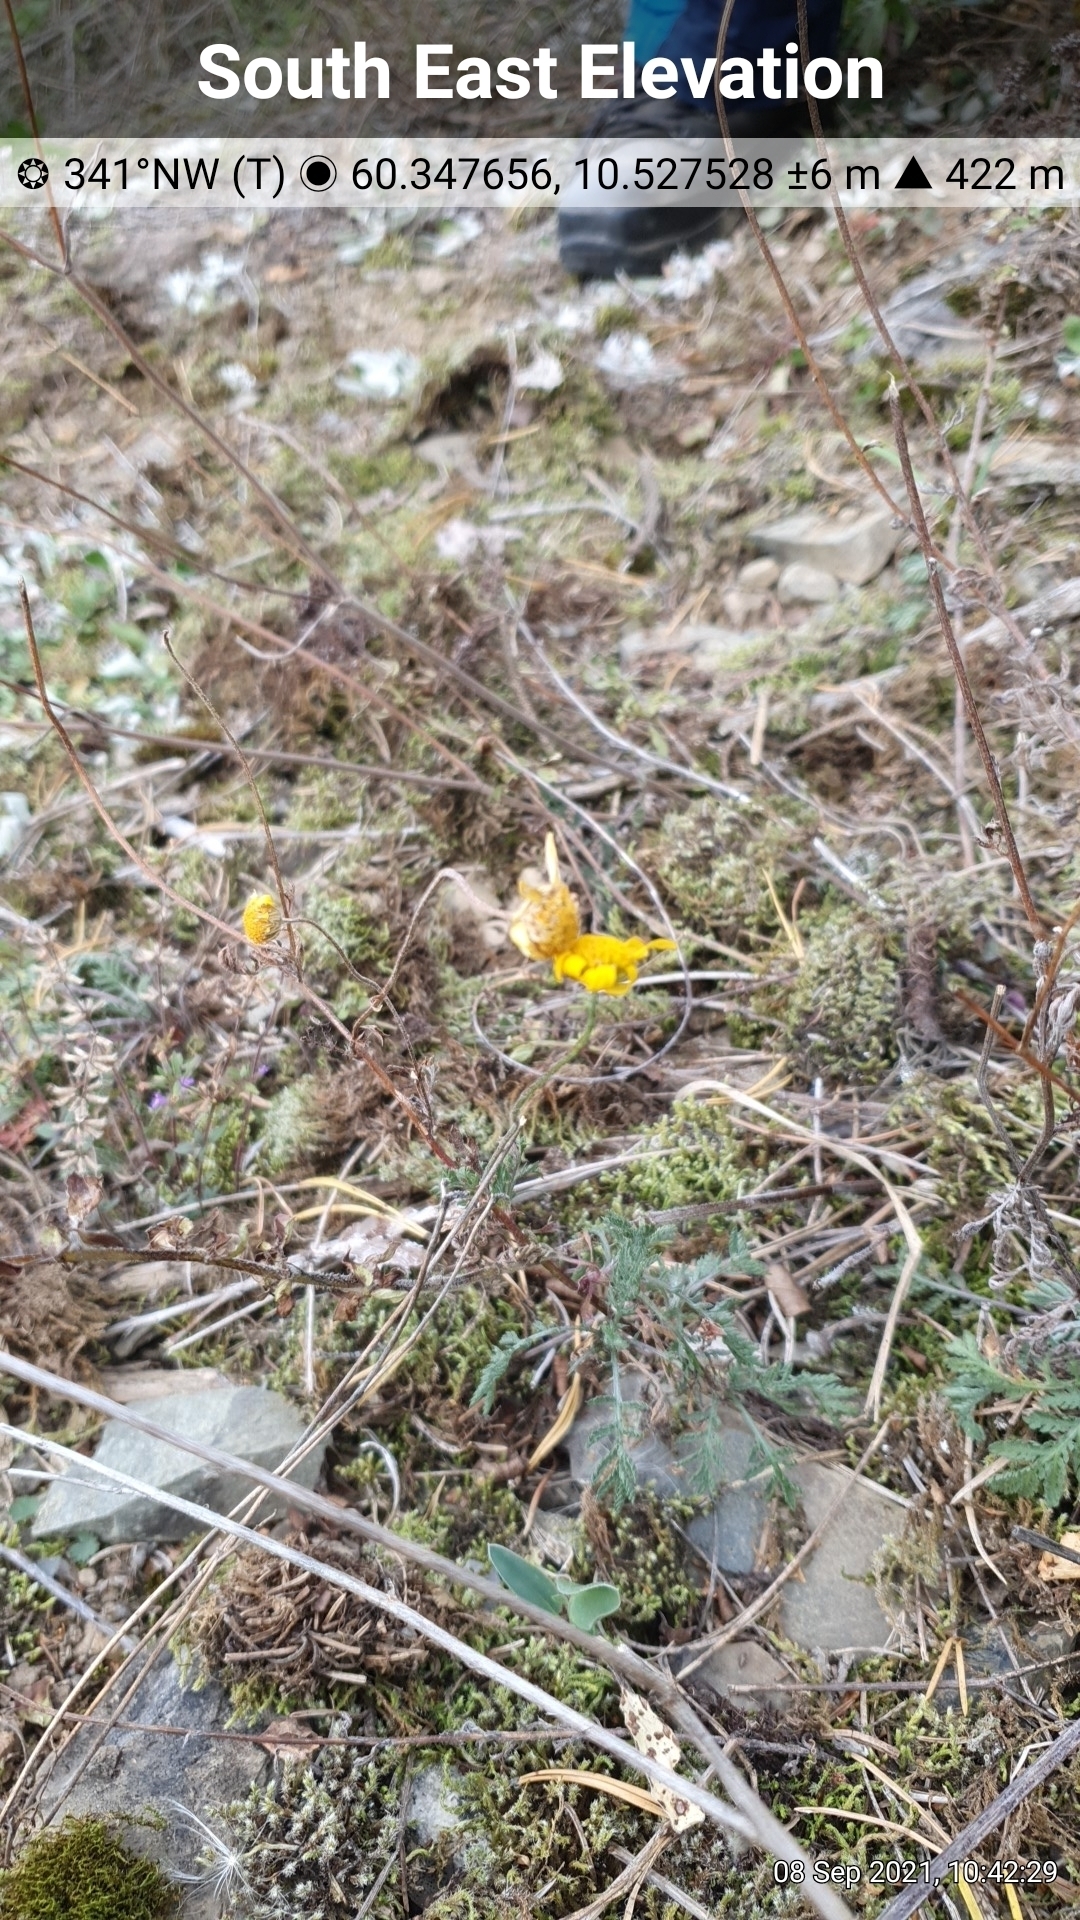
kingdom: Plantae
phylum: Tracheophyta
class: Magnoliopsida
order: Asterales
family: Asteraceae
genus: Cota
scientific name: Cota tinctoria
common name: Golden chamomile
